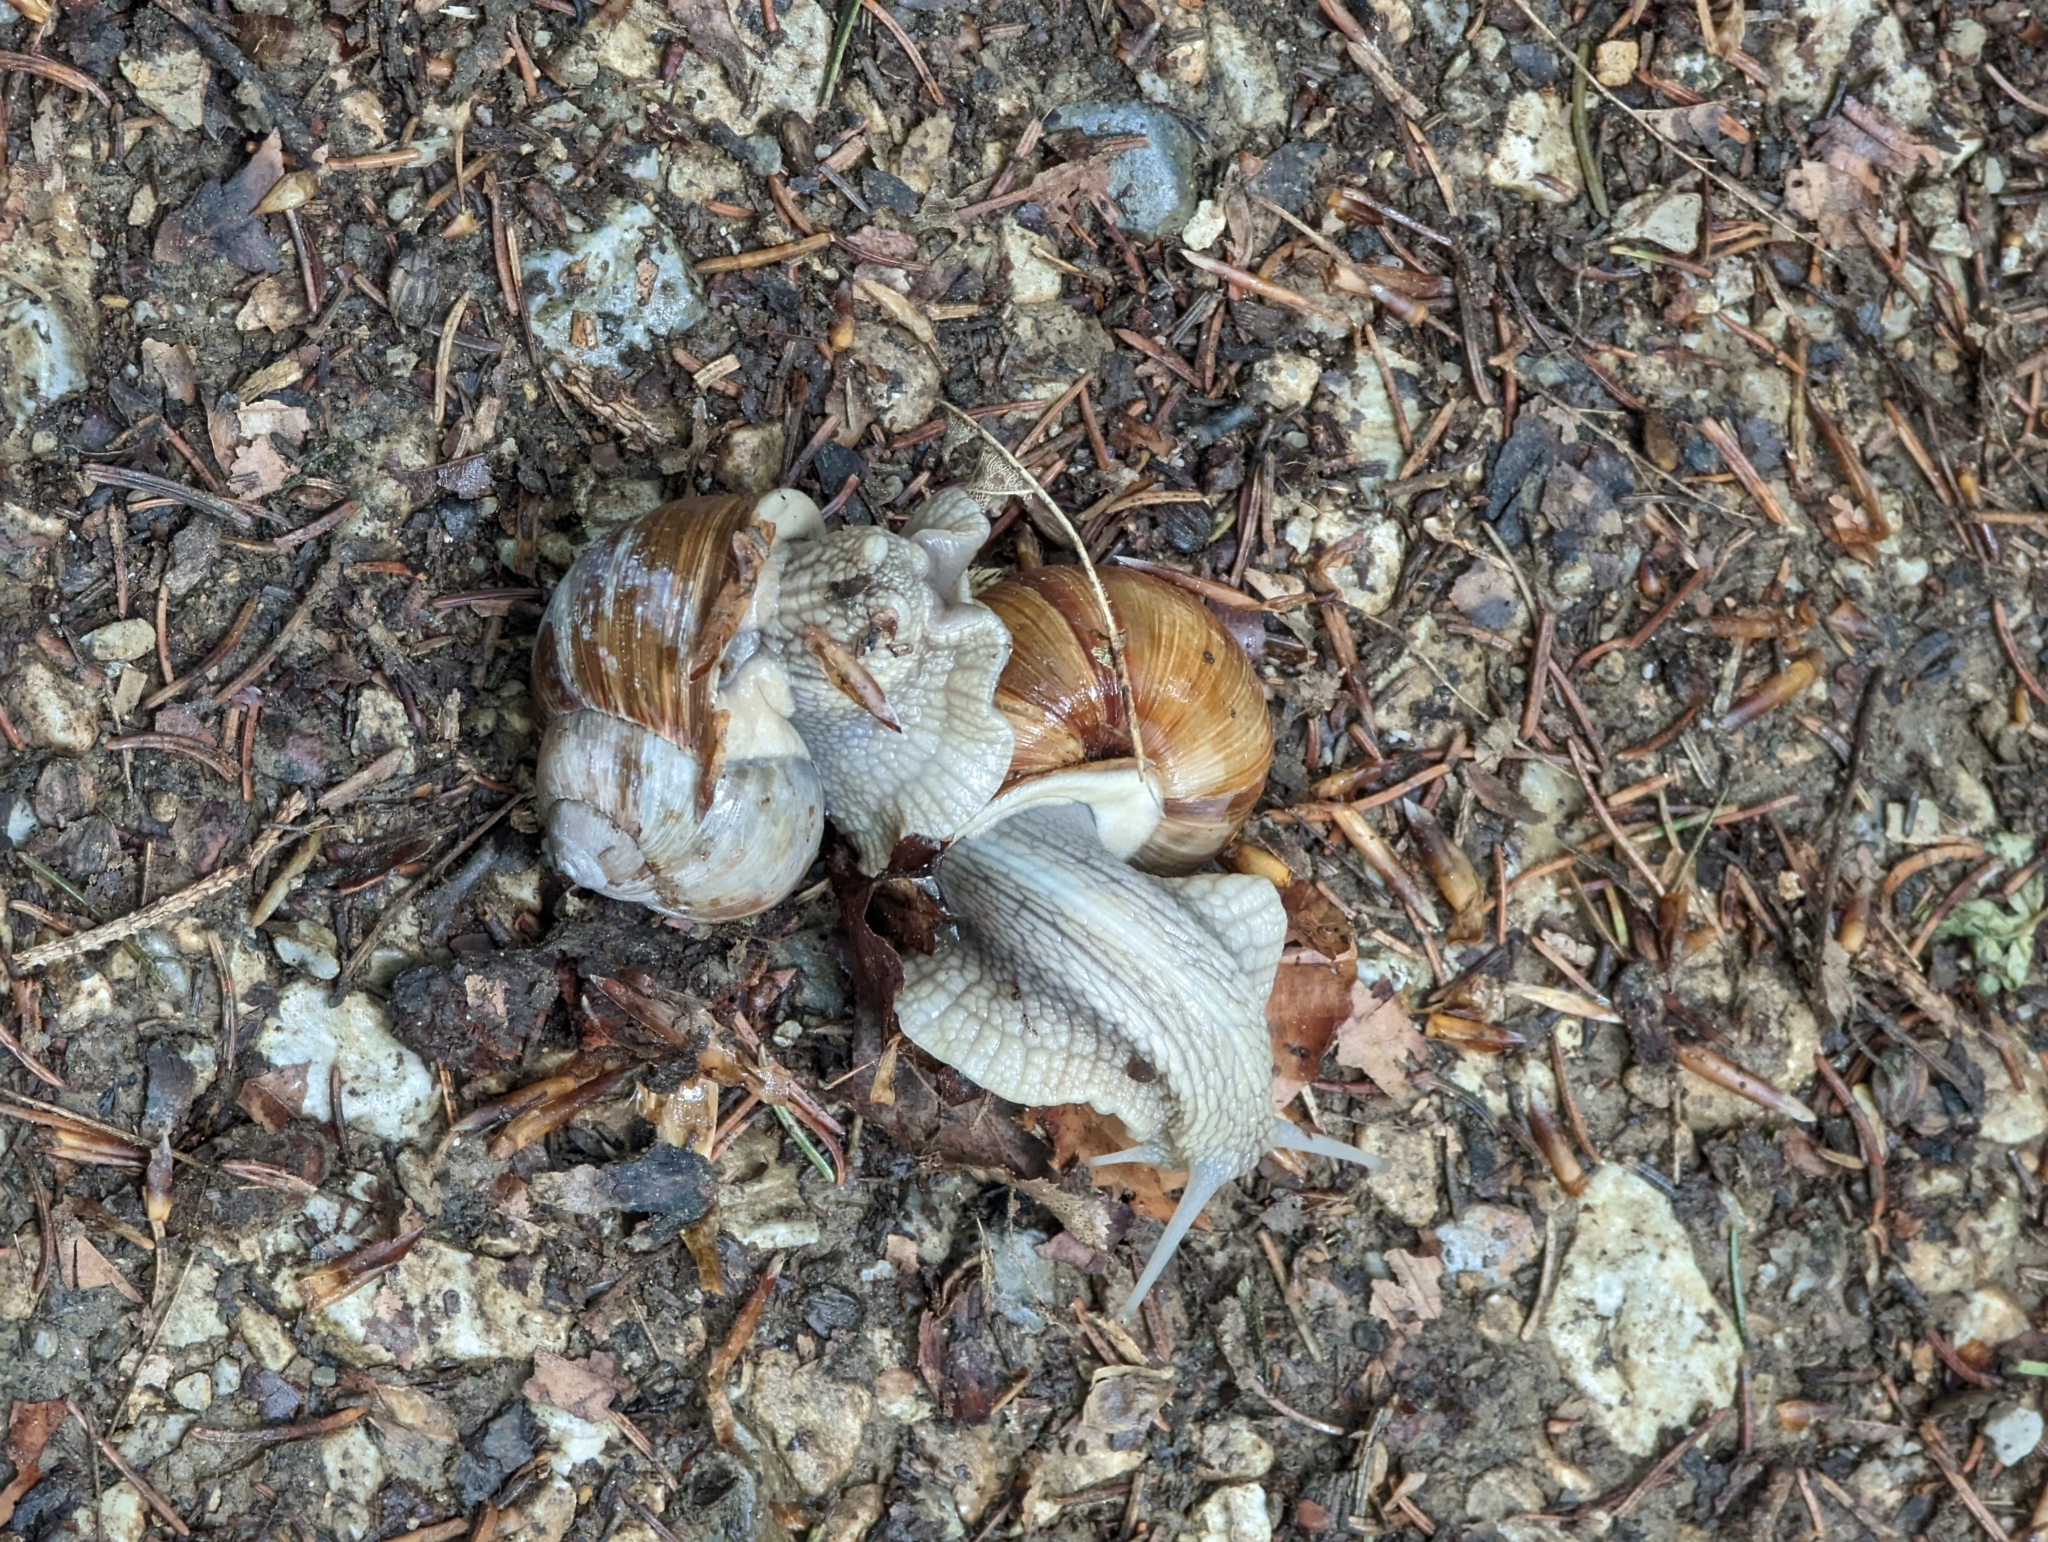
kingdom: Animalia
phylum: Mollusca
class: Gastropoda
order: Stylommatophora
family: Helicidae
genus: Helix
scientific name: Helix pomatia
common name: Roman snail
